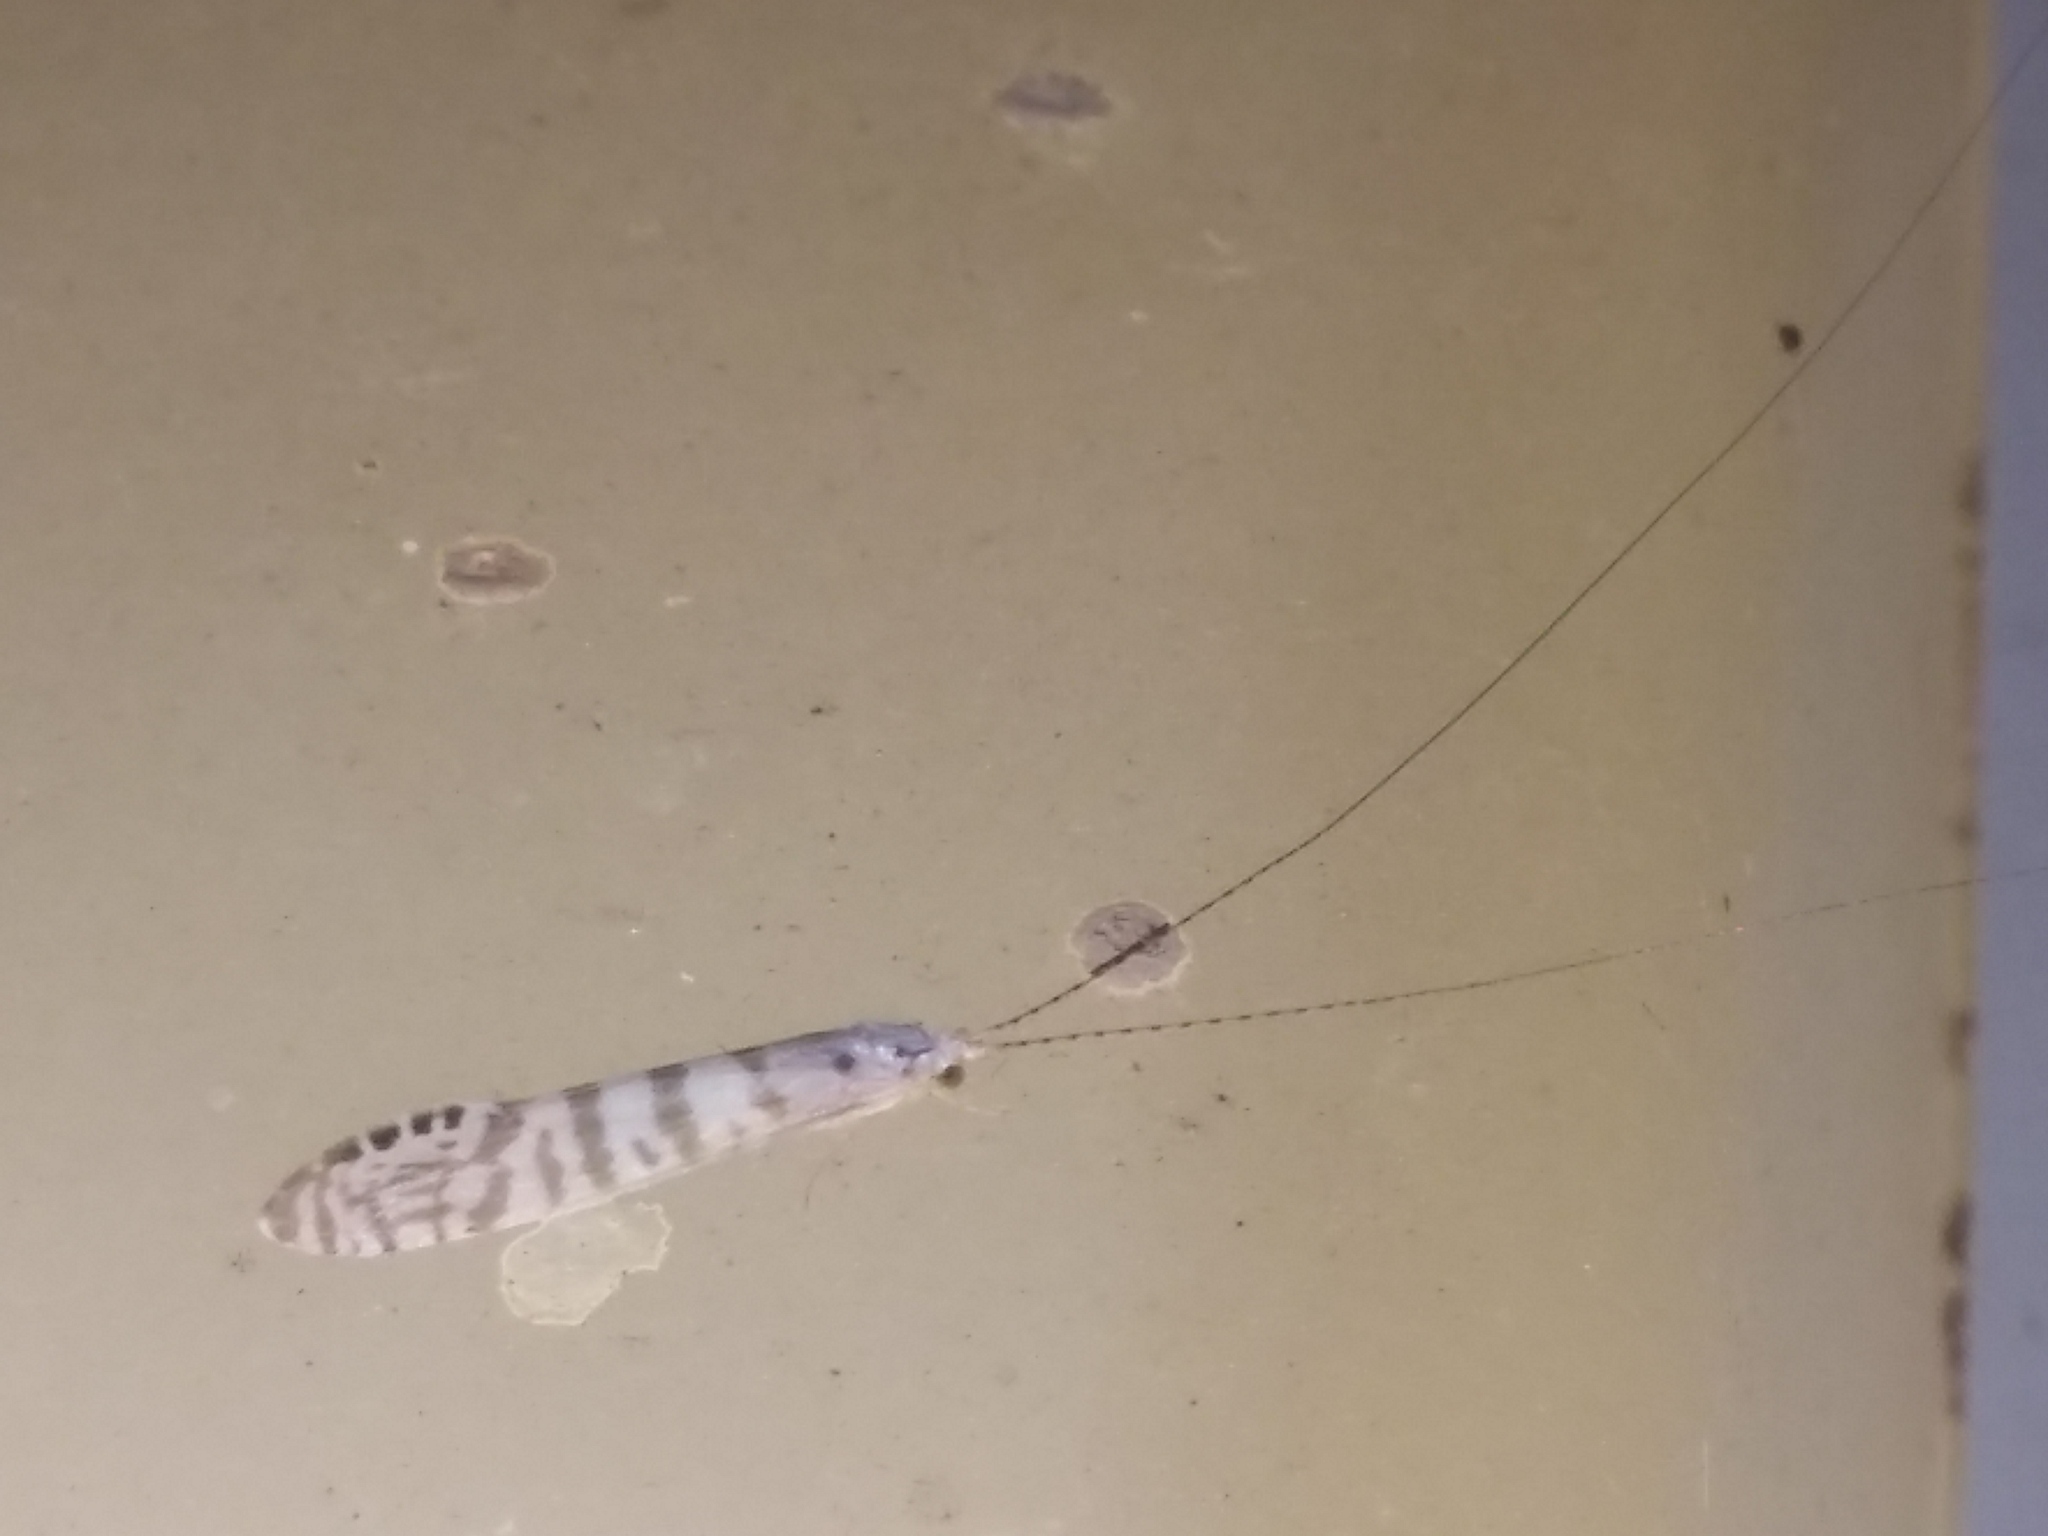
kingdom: Animalia
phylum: Arthropoda
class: Insecta
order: Trichoptera
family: Leptoceridae
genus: Nectopsyche
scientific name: Nectopsyche exquisita
